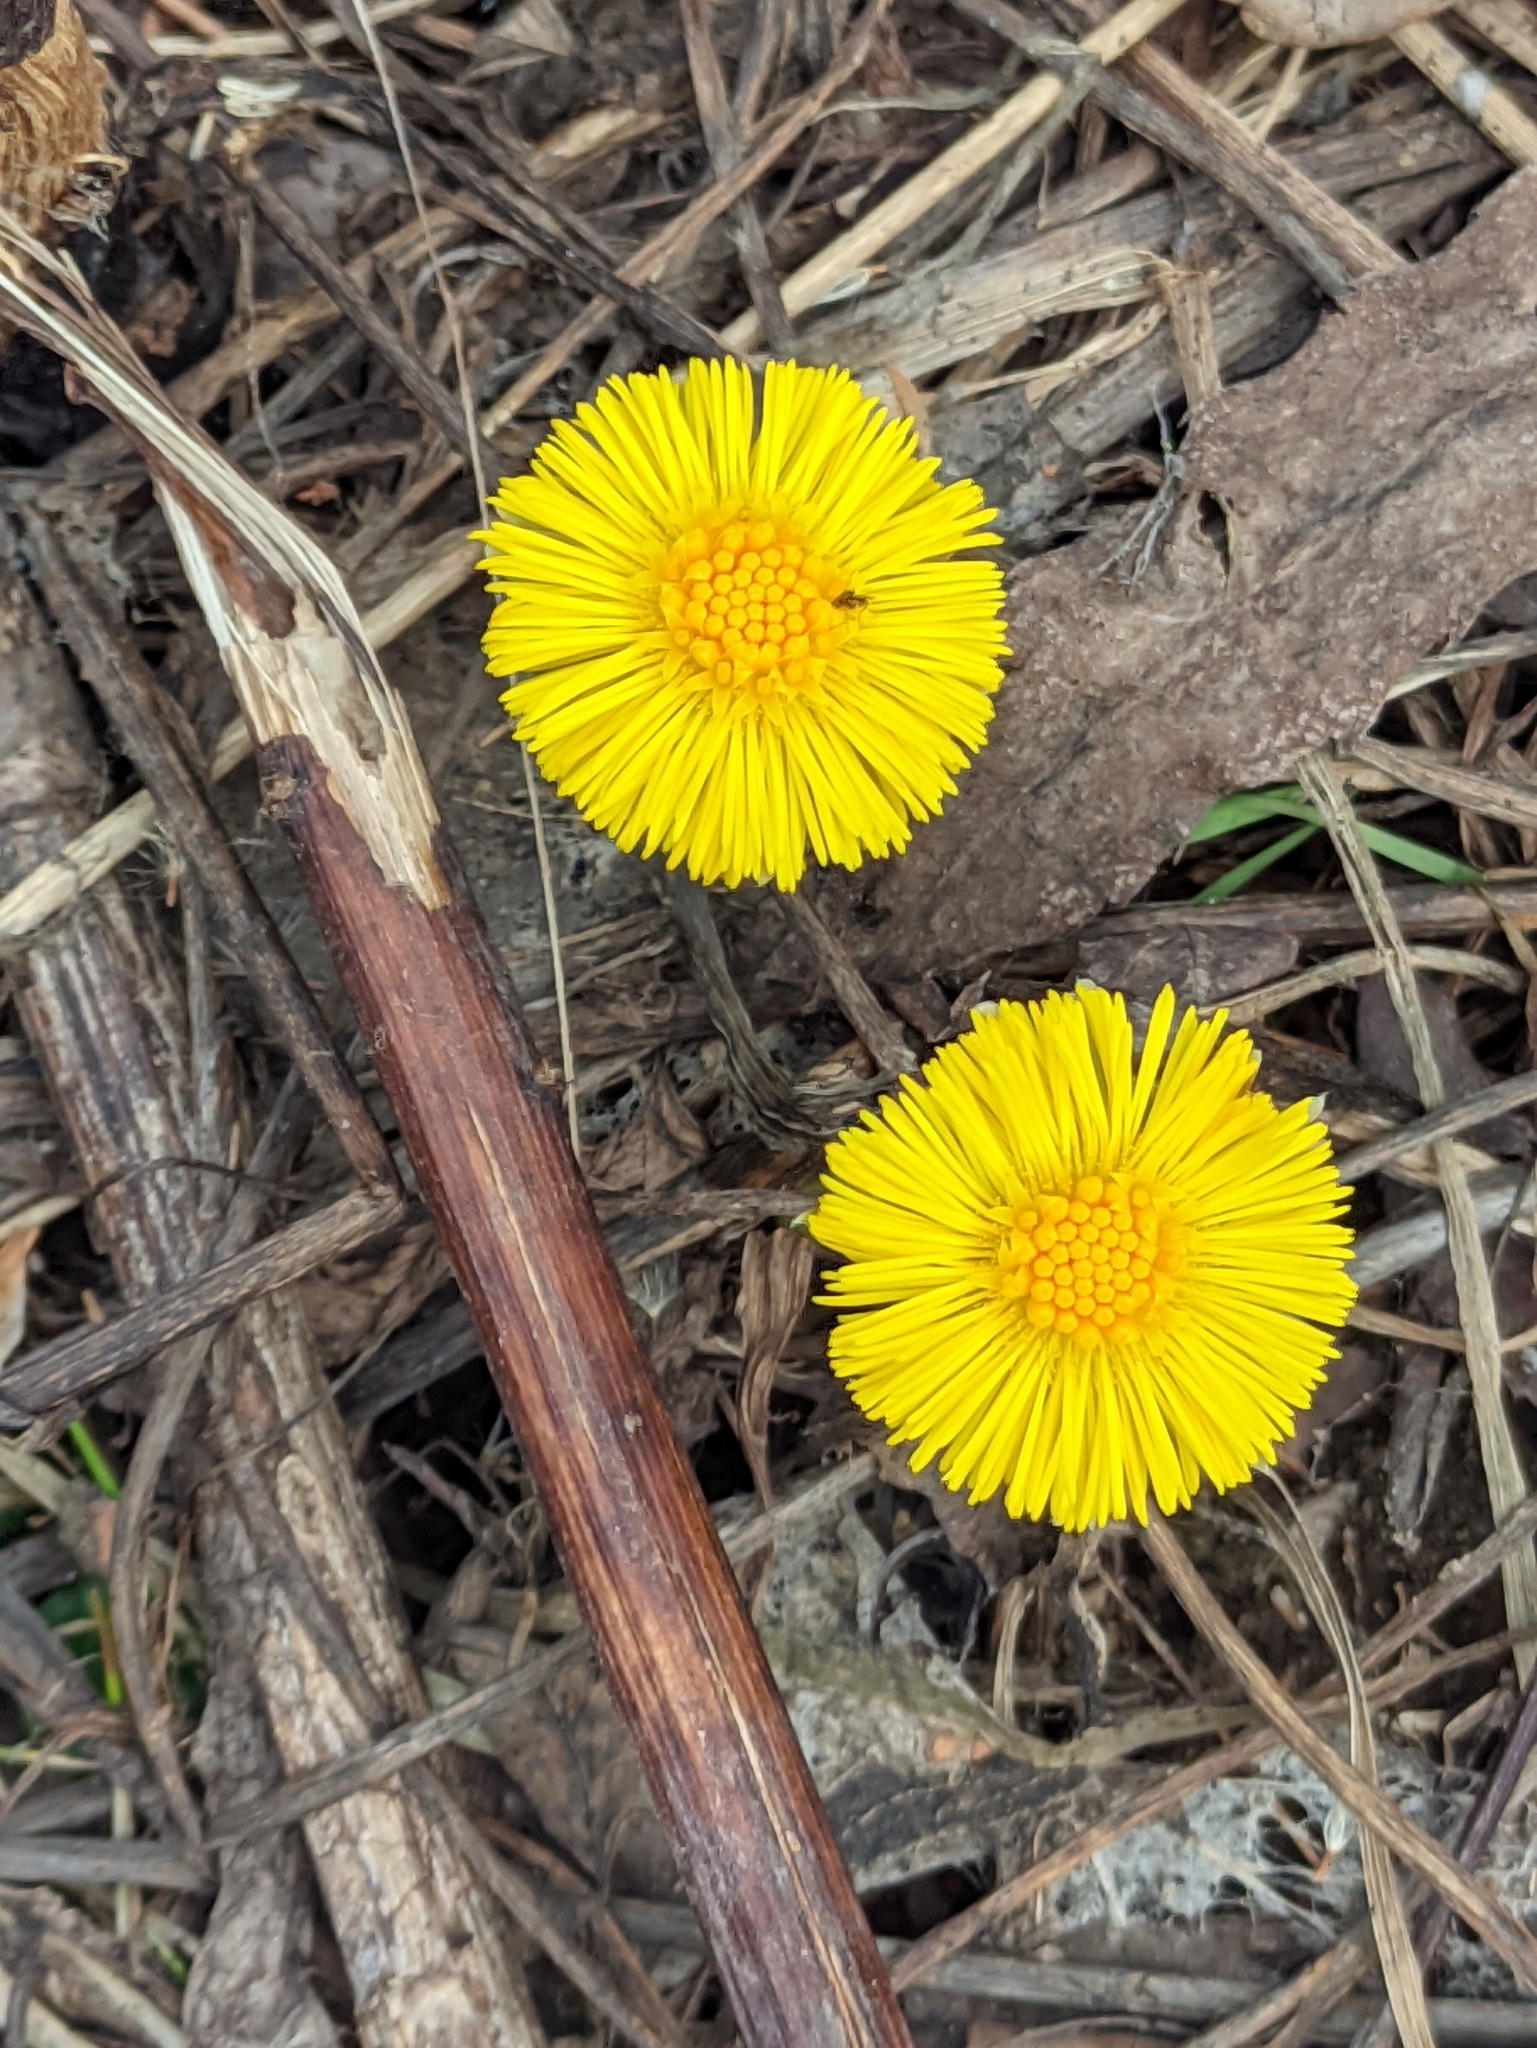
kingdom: Plantae
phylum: Tracheophyta
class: Magnoliopsida
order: Asterales
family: Asteraceae
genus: Tussilago
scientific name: Tussilago farfara
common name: Coltsfoot
